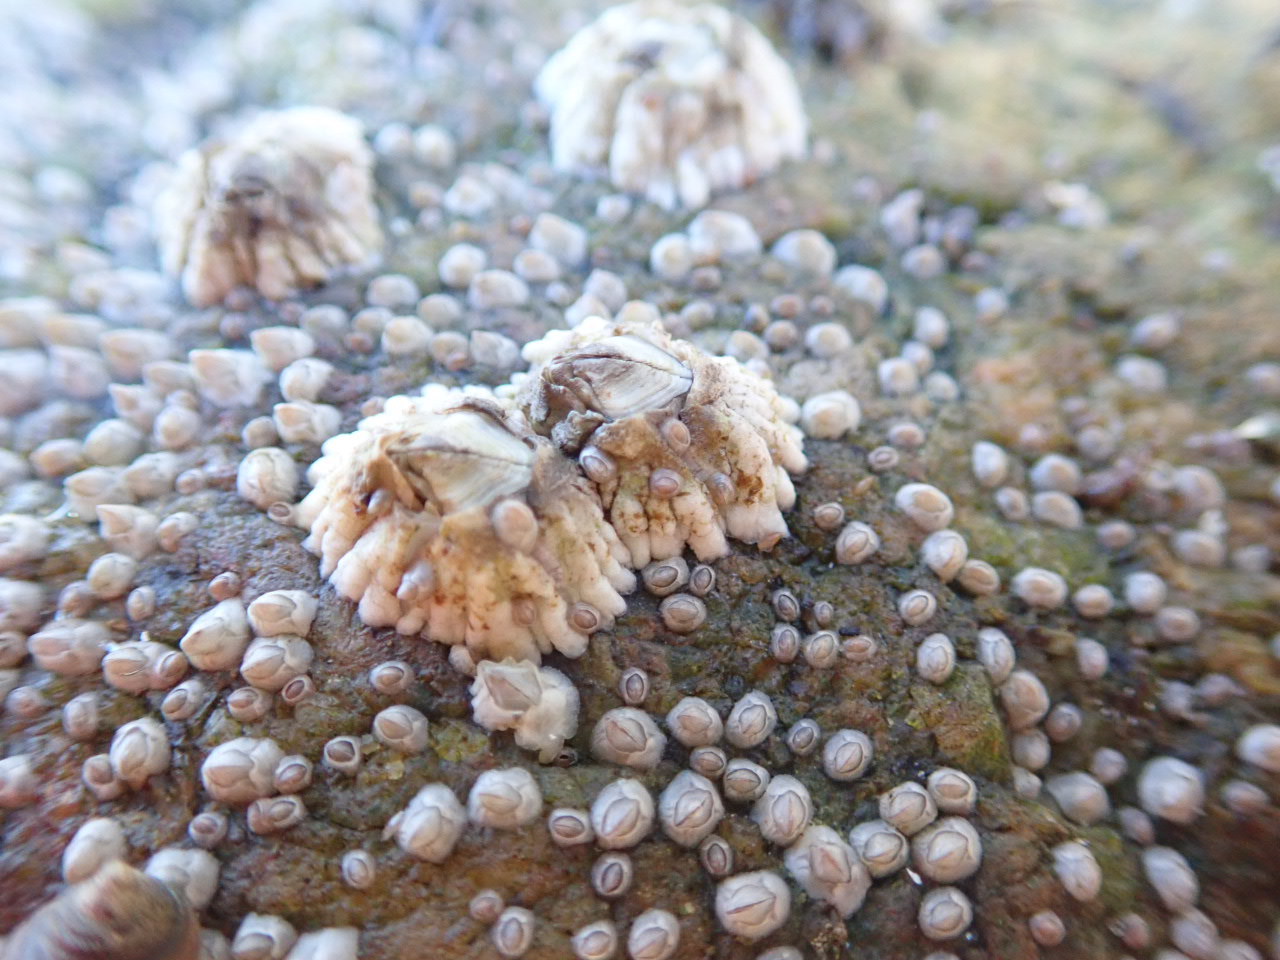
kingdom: Animalia
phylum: Arthropoda
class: Maxillopoda
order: Sessilia
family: Archaeobalanidae
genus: Semibalanus
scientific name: Semibalanus balanoides
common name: Acorn barnacle
